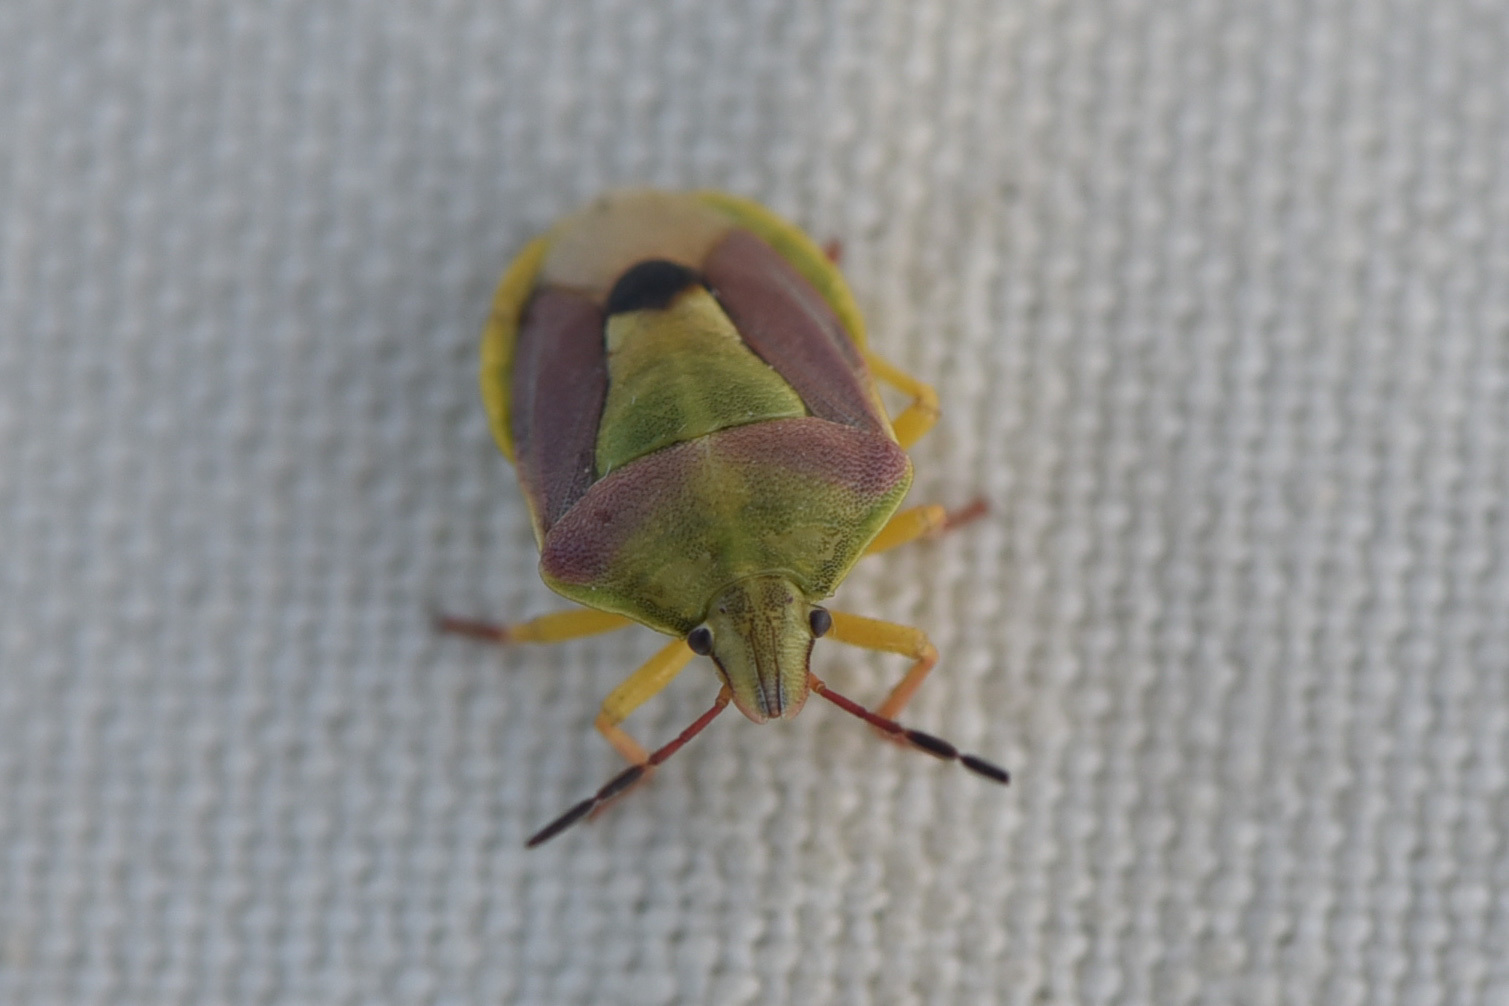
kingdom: Animalia
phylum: Arthropoda
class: Insecta
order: Hemiptera
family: Pentatomidae
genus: Antheminia
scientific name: Antheminia
